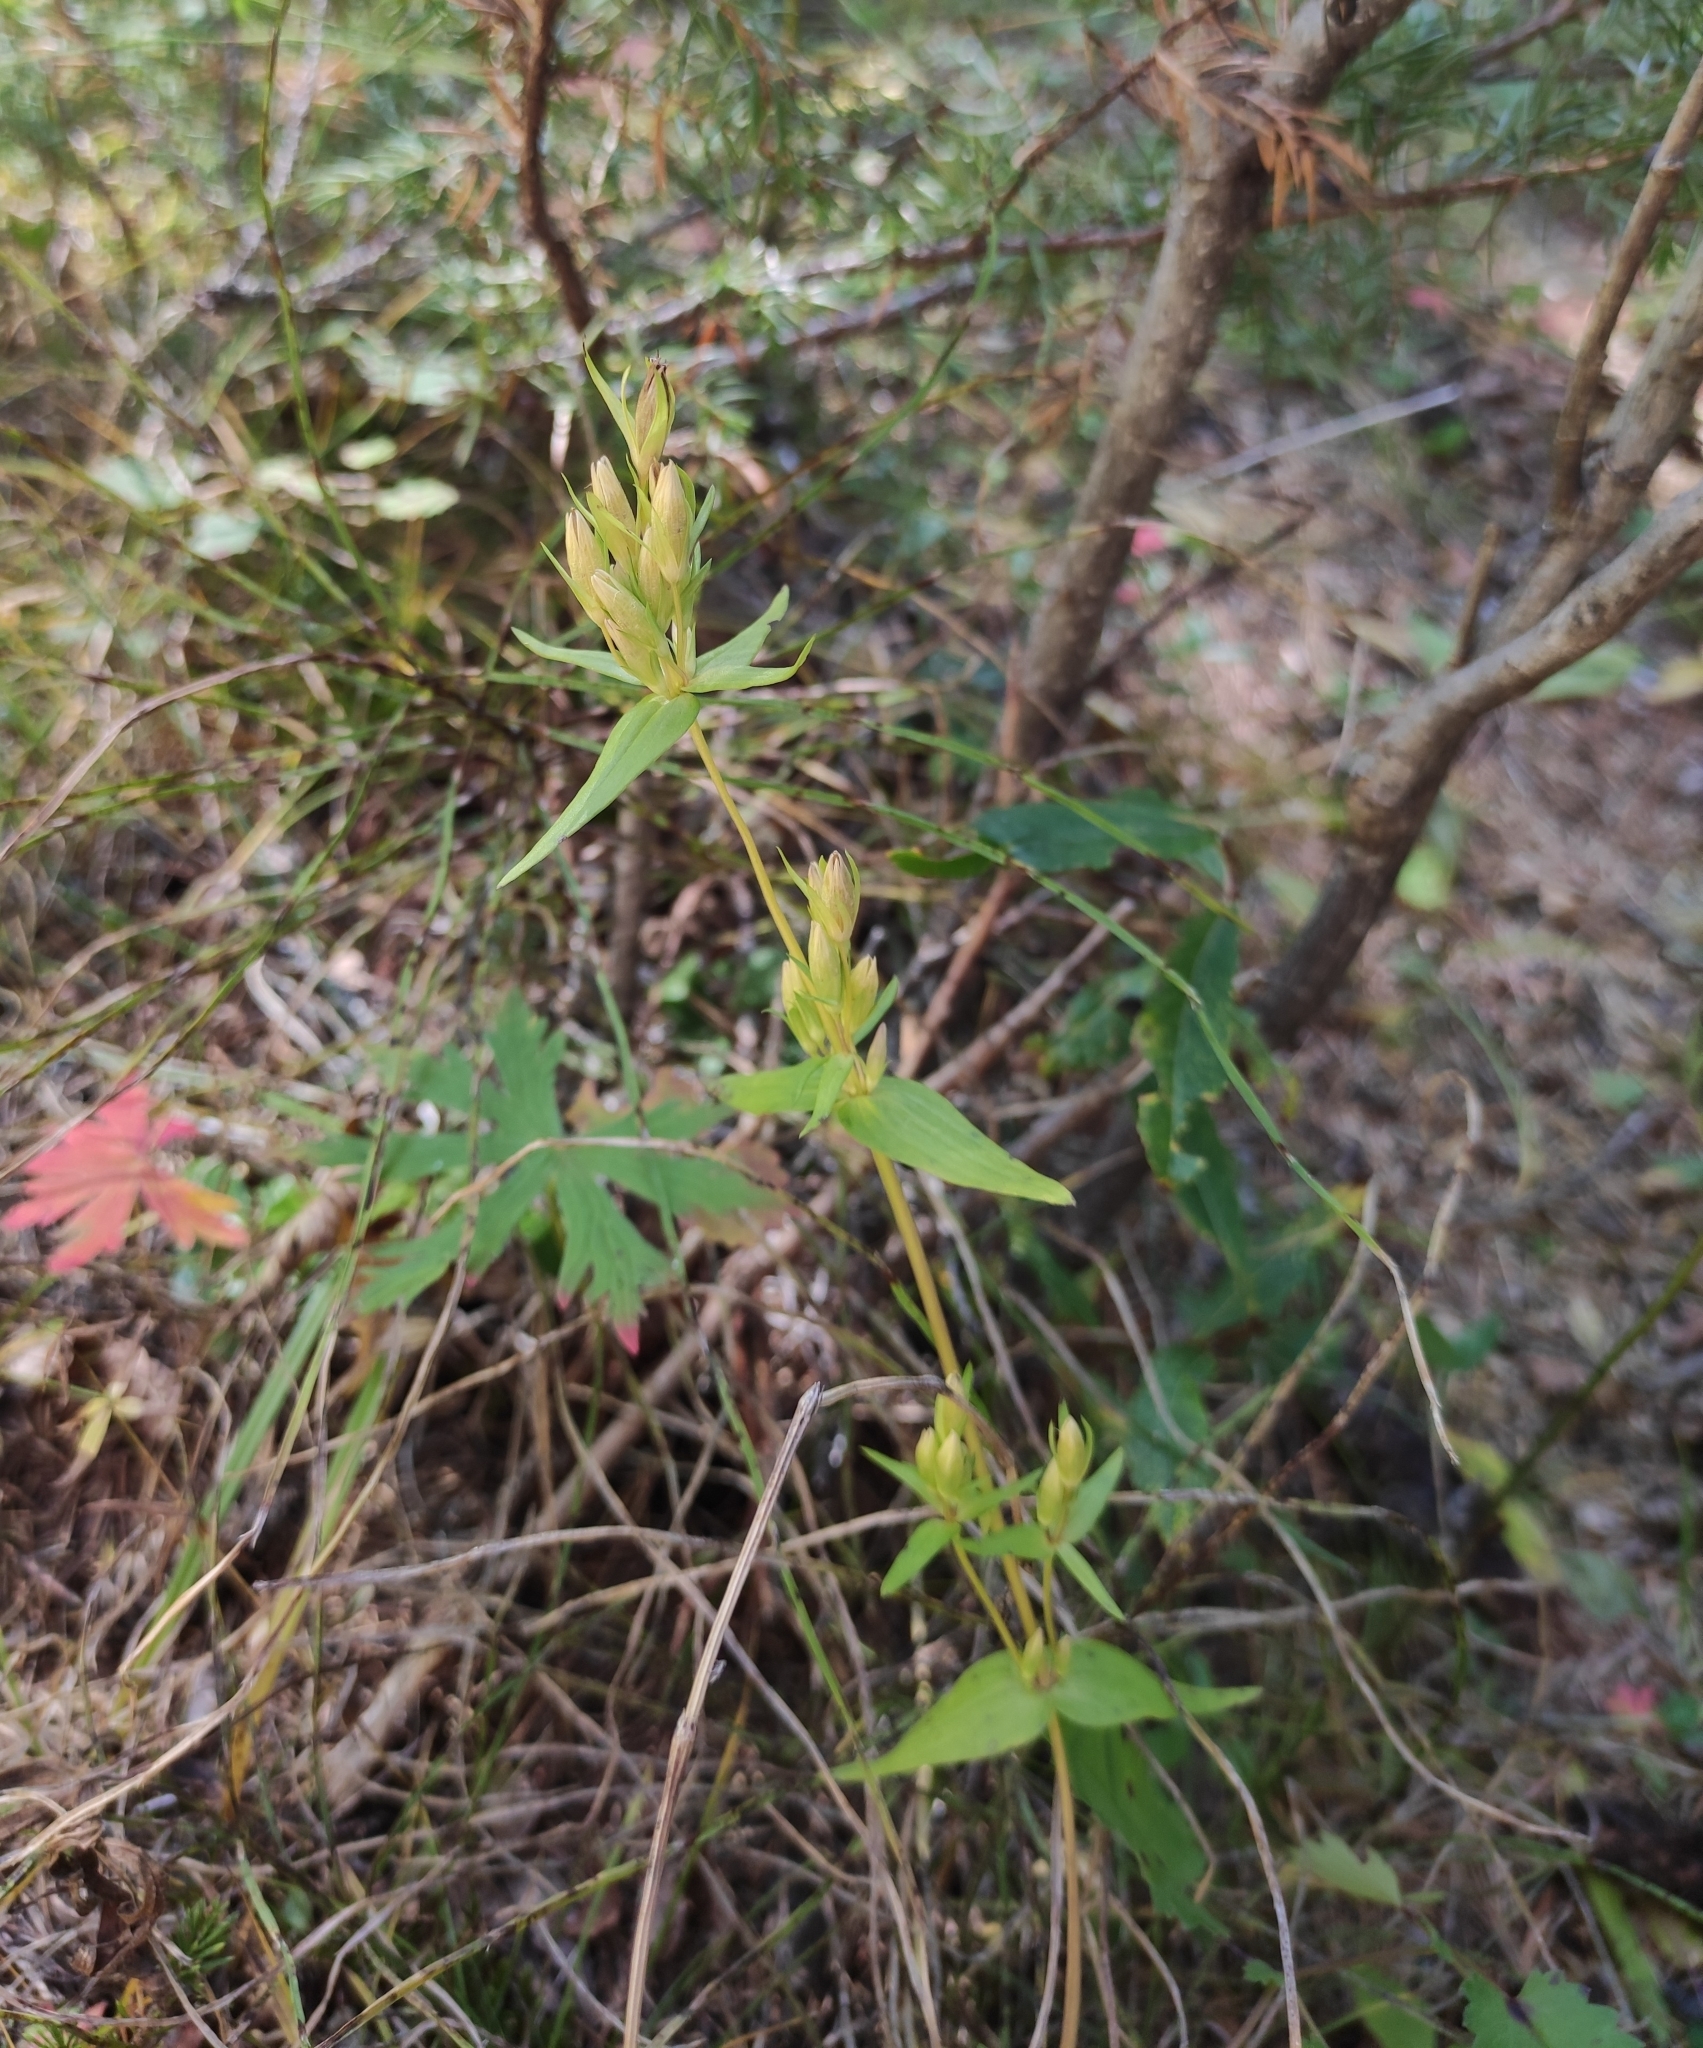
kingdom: Plantae
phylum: Tracheophyta
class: Magnoliopsida
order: Gentianales
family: Gentianaceae
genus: Gentianella
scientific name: Gentianella amarella
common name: Autumn gentian
